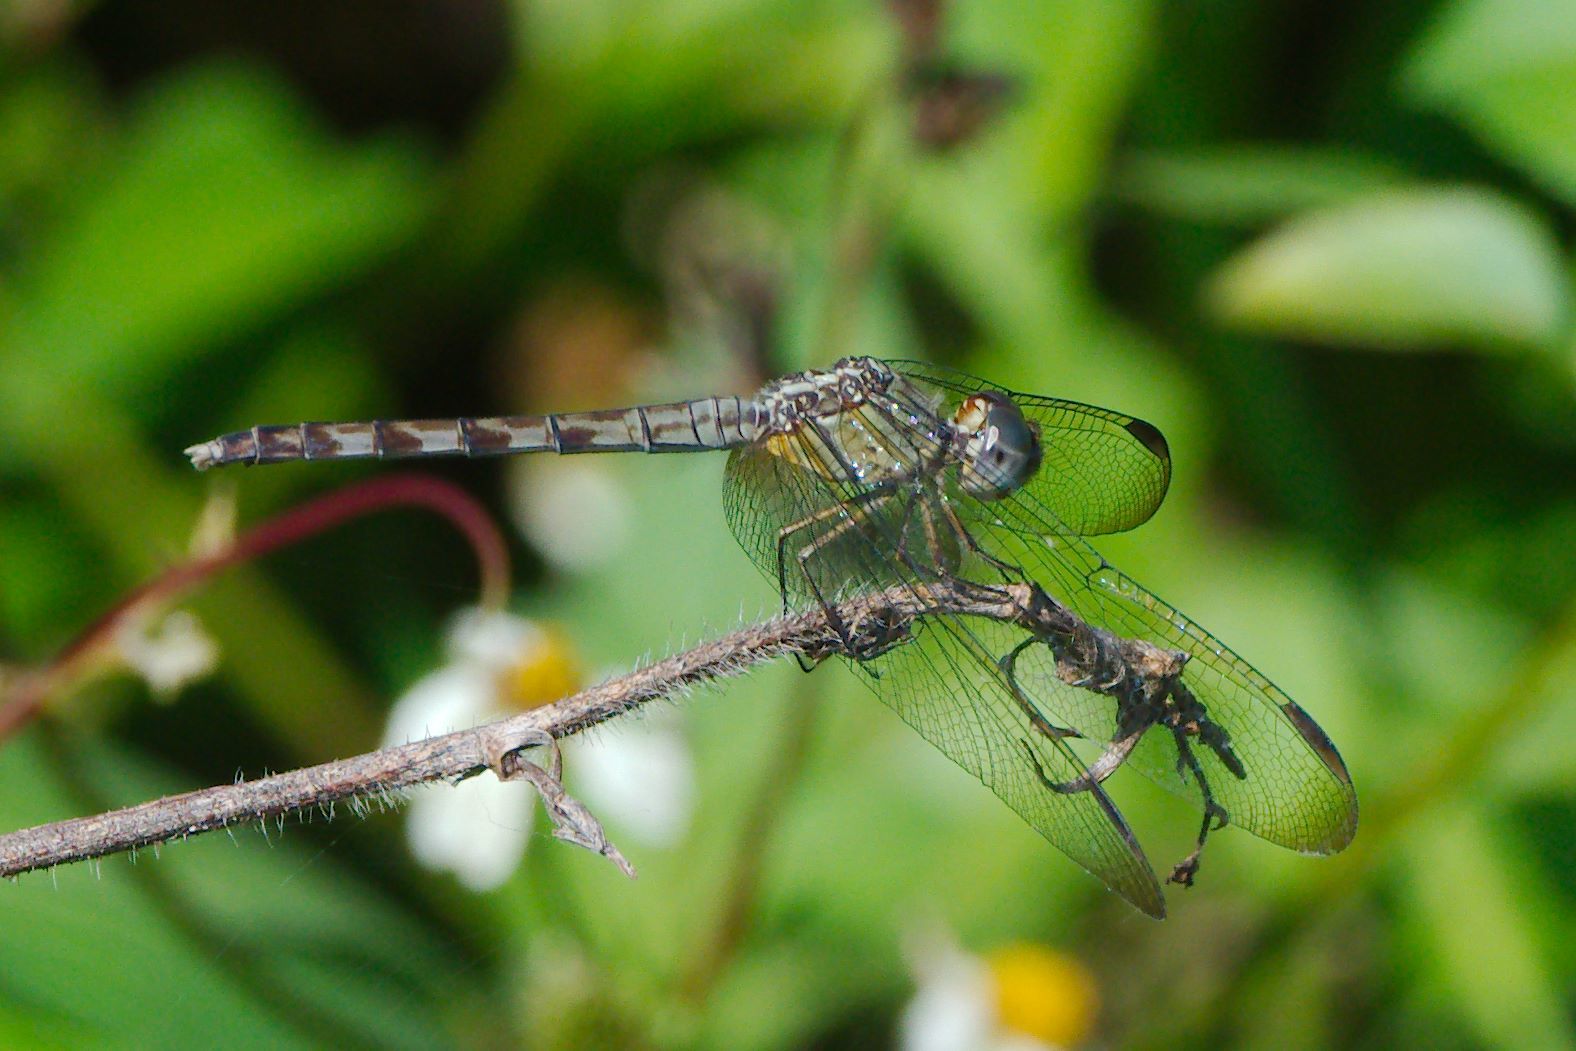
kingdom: Animalia
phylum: Arthropoda
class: Insecta
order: Odonata
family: Libellulidae
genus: Erythrodiplax
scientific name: Erythrodiplax umbrata
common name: Band-winged dragonlet
